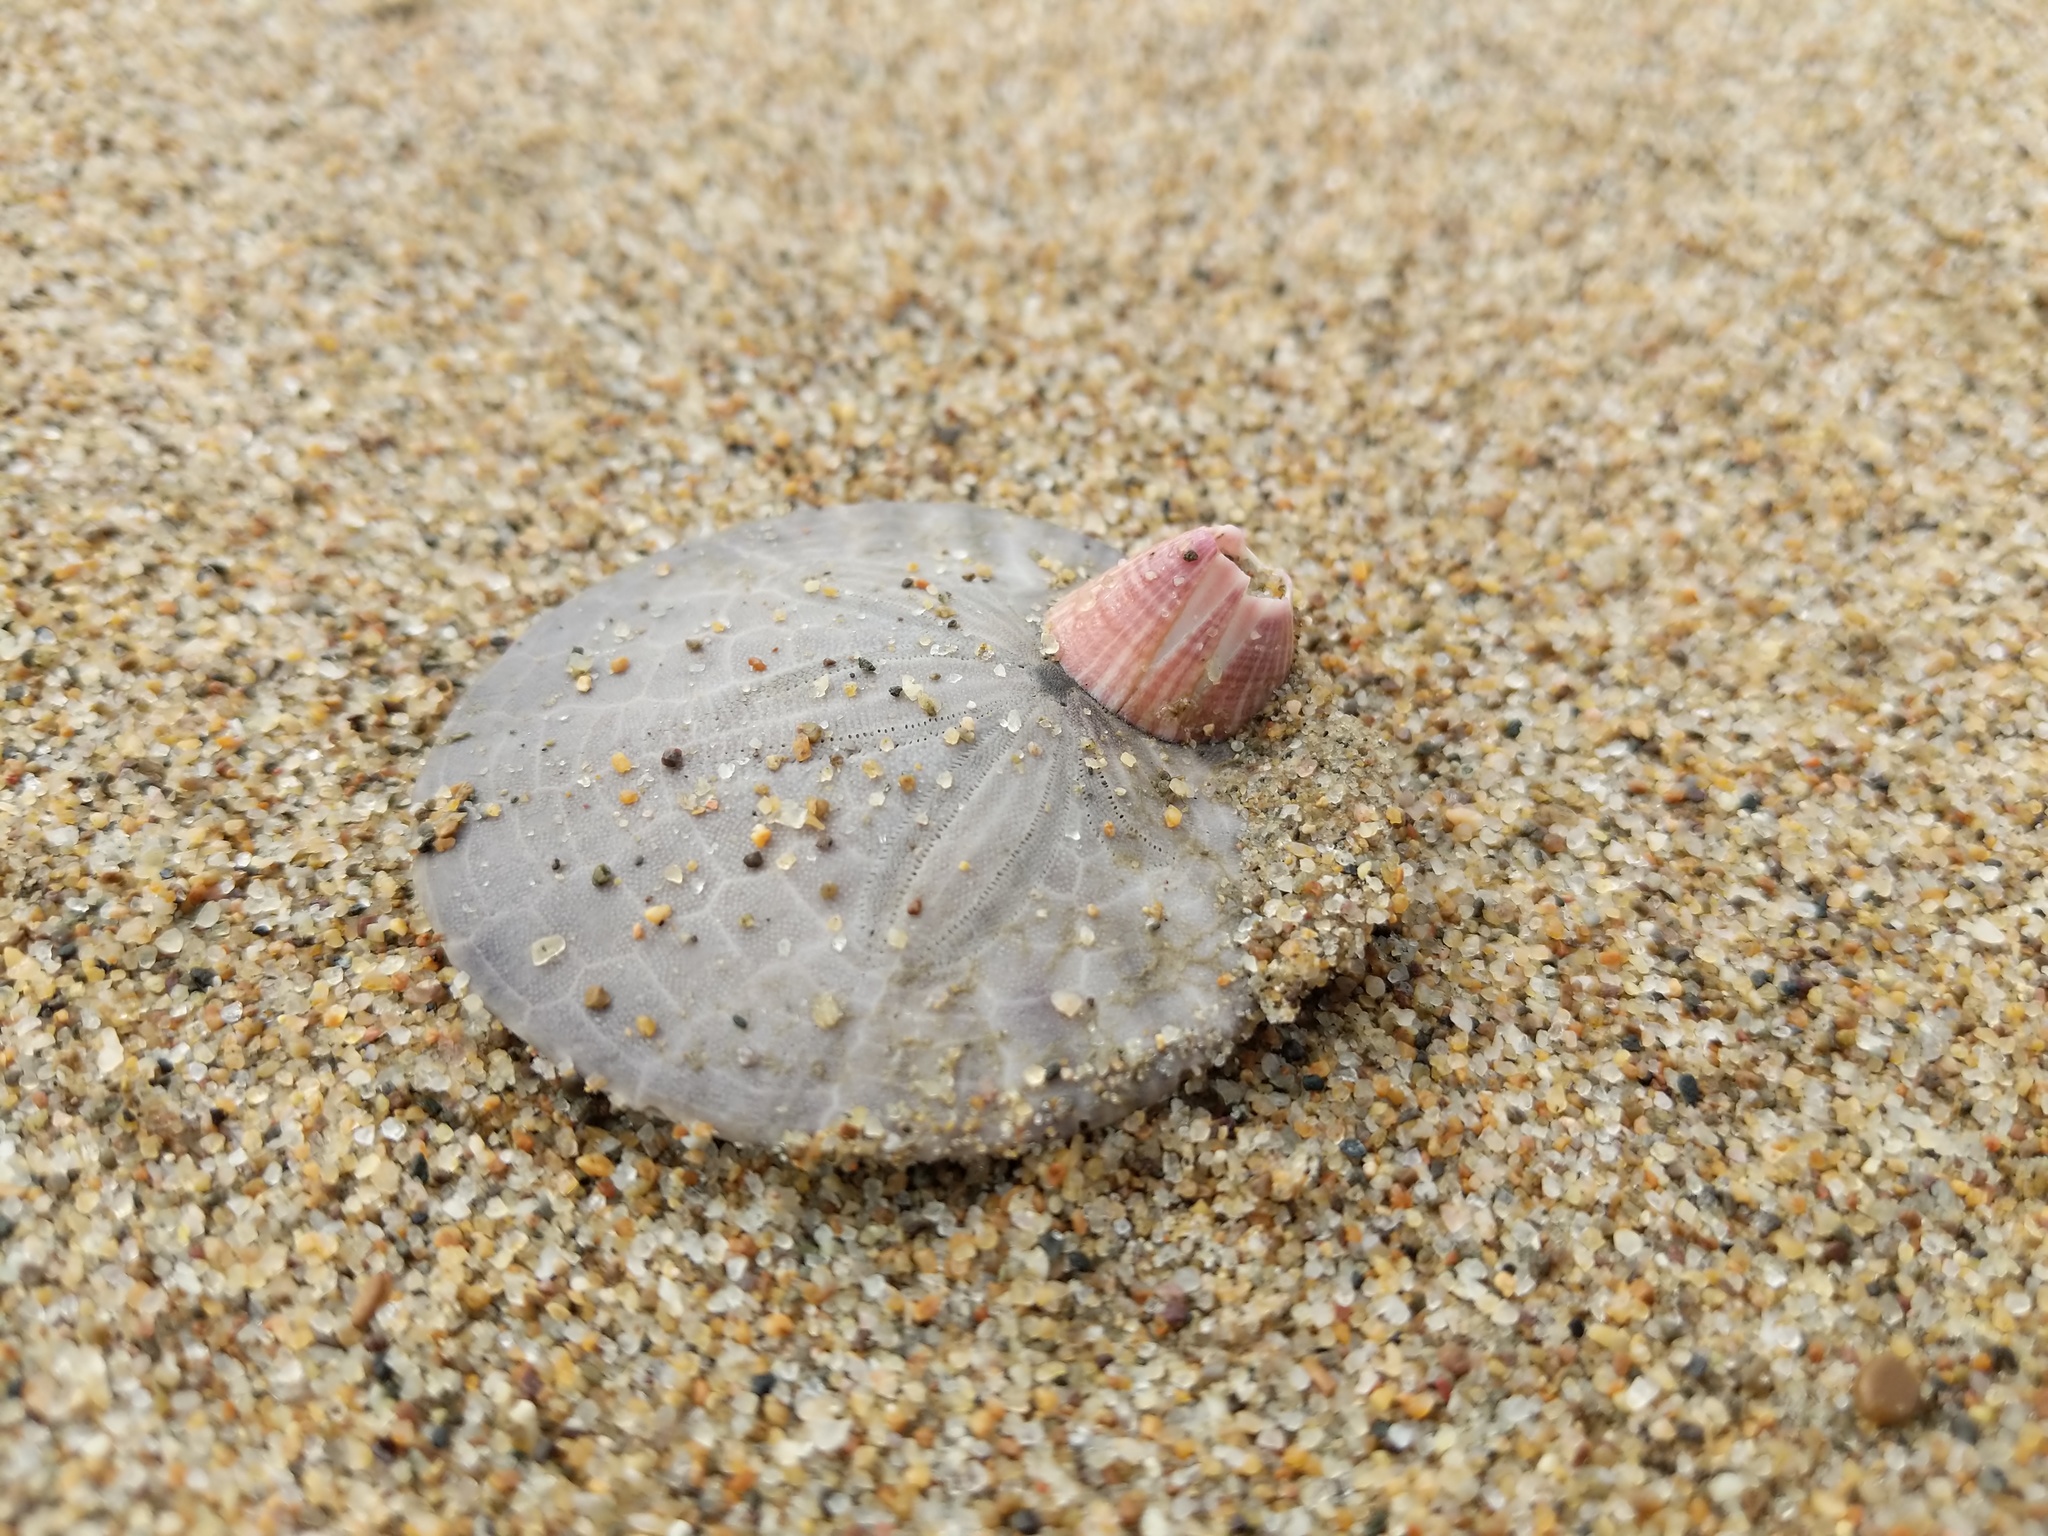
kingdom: Animalia
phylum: Arthropoda
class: Maxillopoda
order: Sessilia
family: Balanidae
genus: Paraconcavus
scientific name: Paraconcavus pacificus
